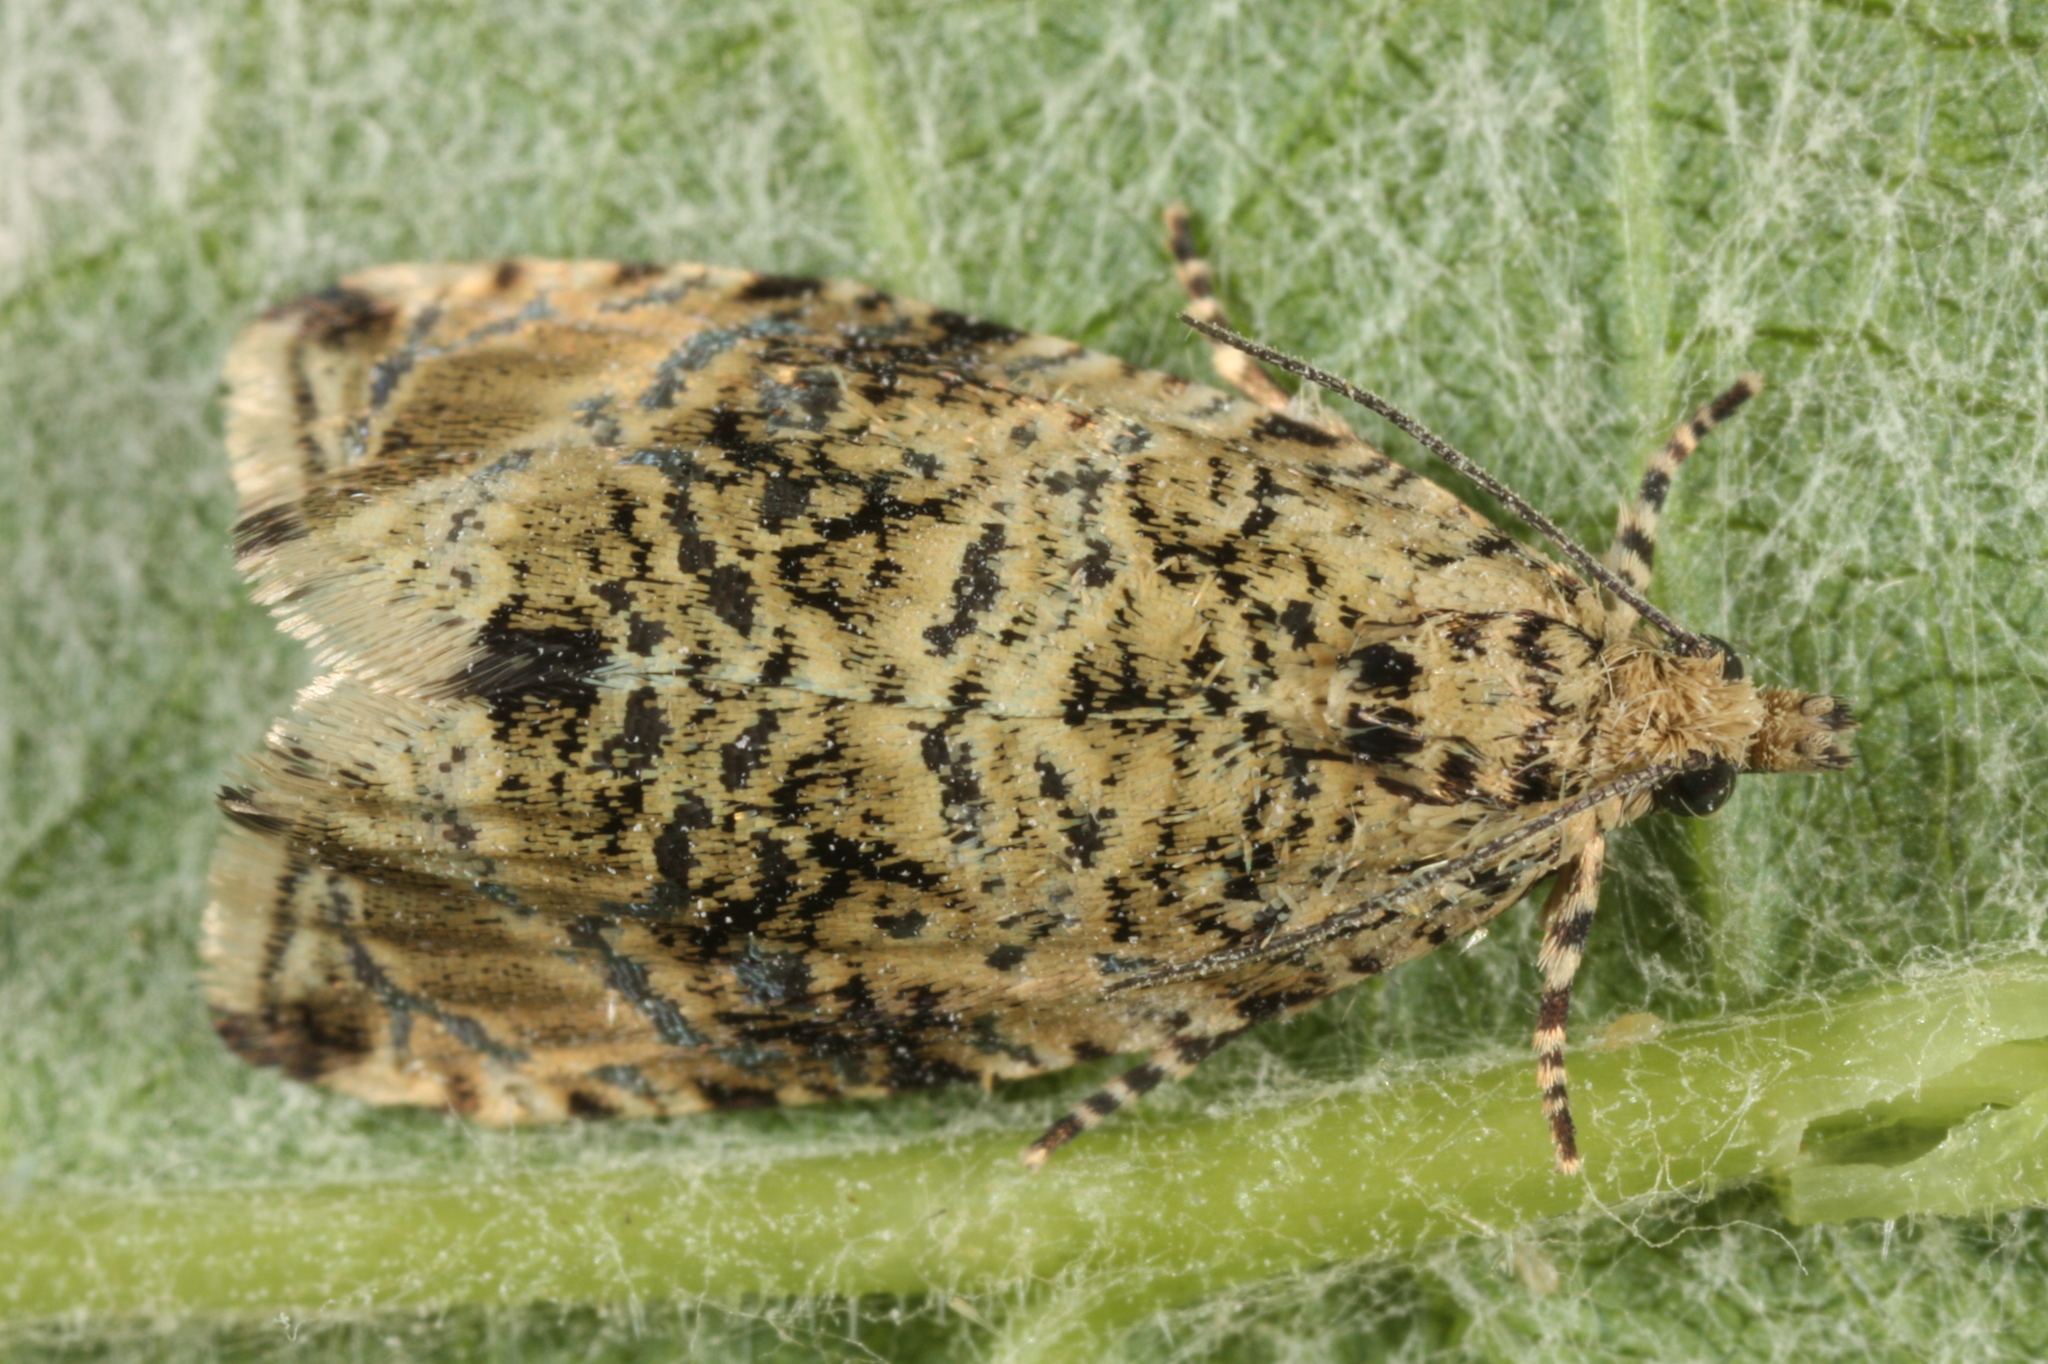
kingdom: Animalia
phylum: Arthropoda
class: Insecta
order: Lepidoptera
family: Tortricidae
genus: Syricoris
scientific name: Syricoris lacunana
